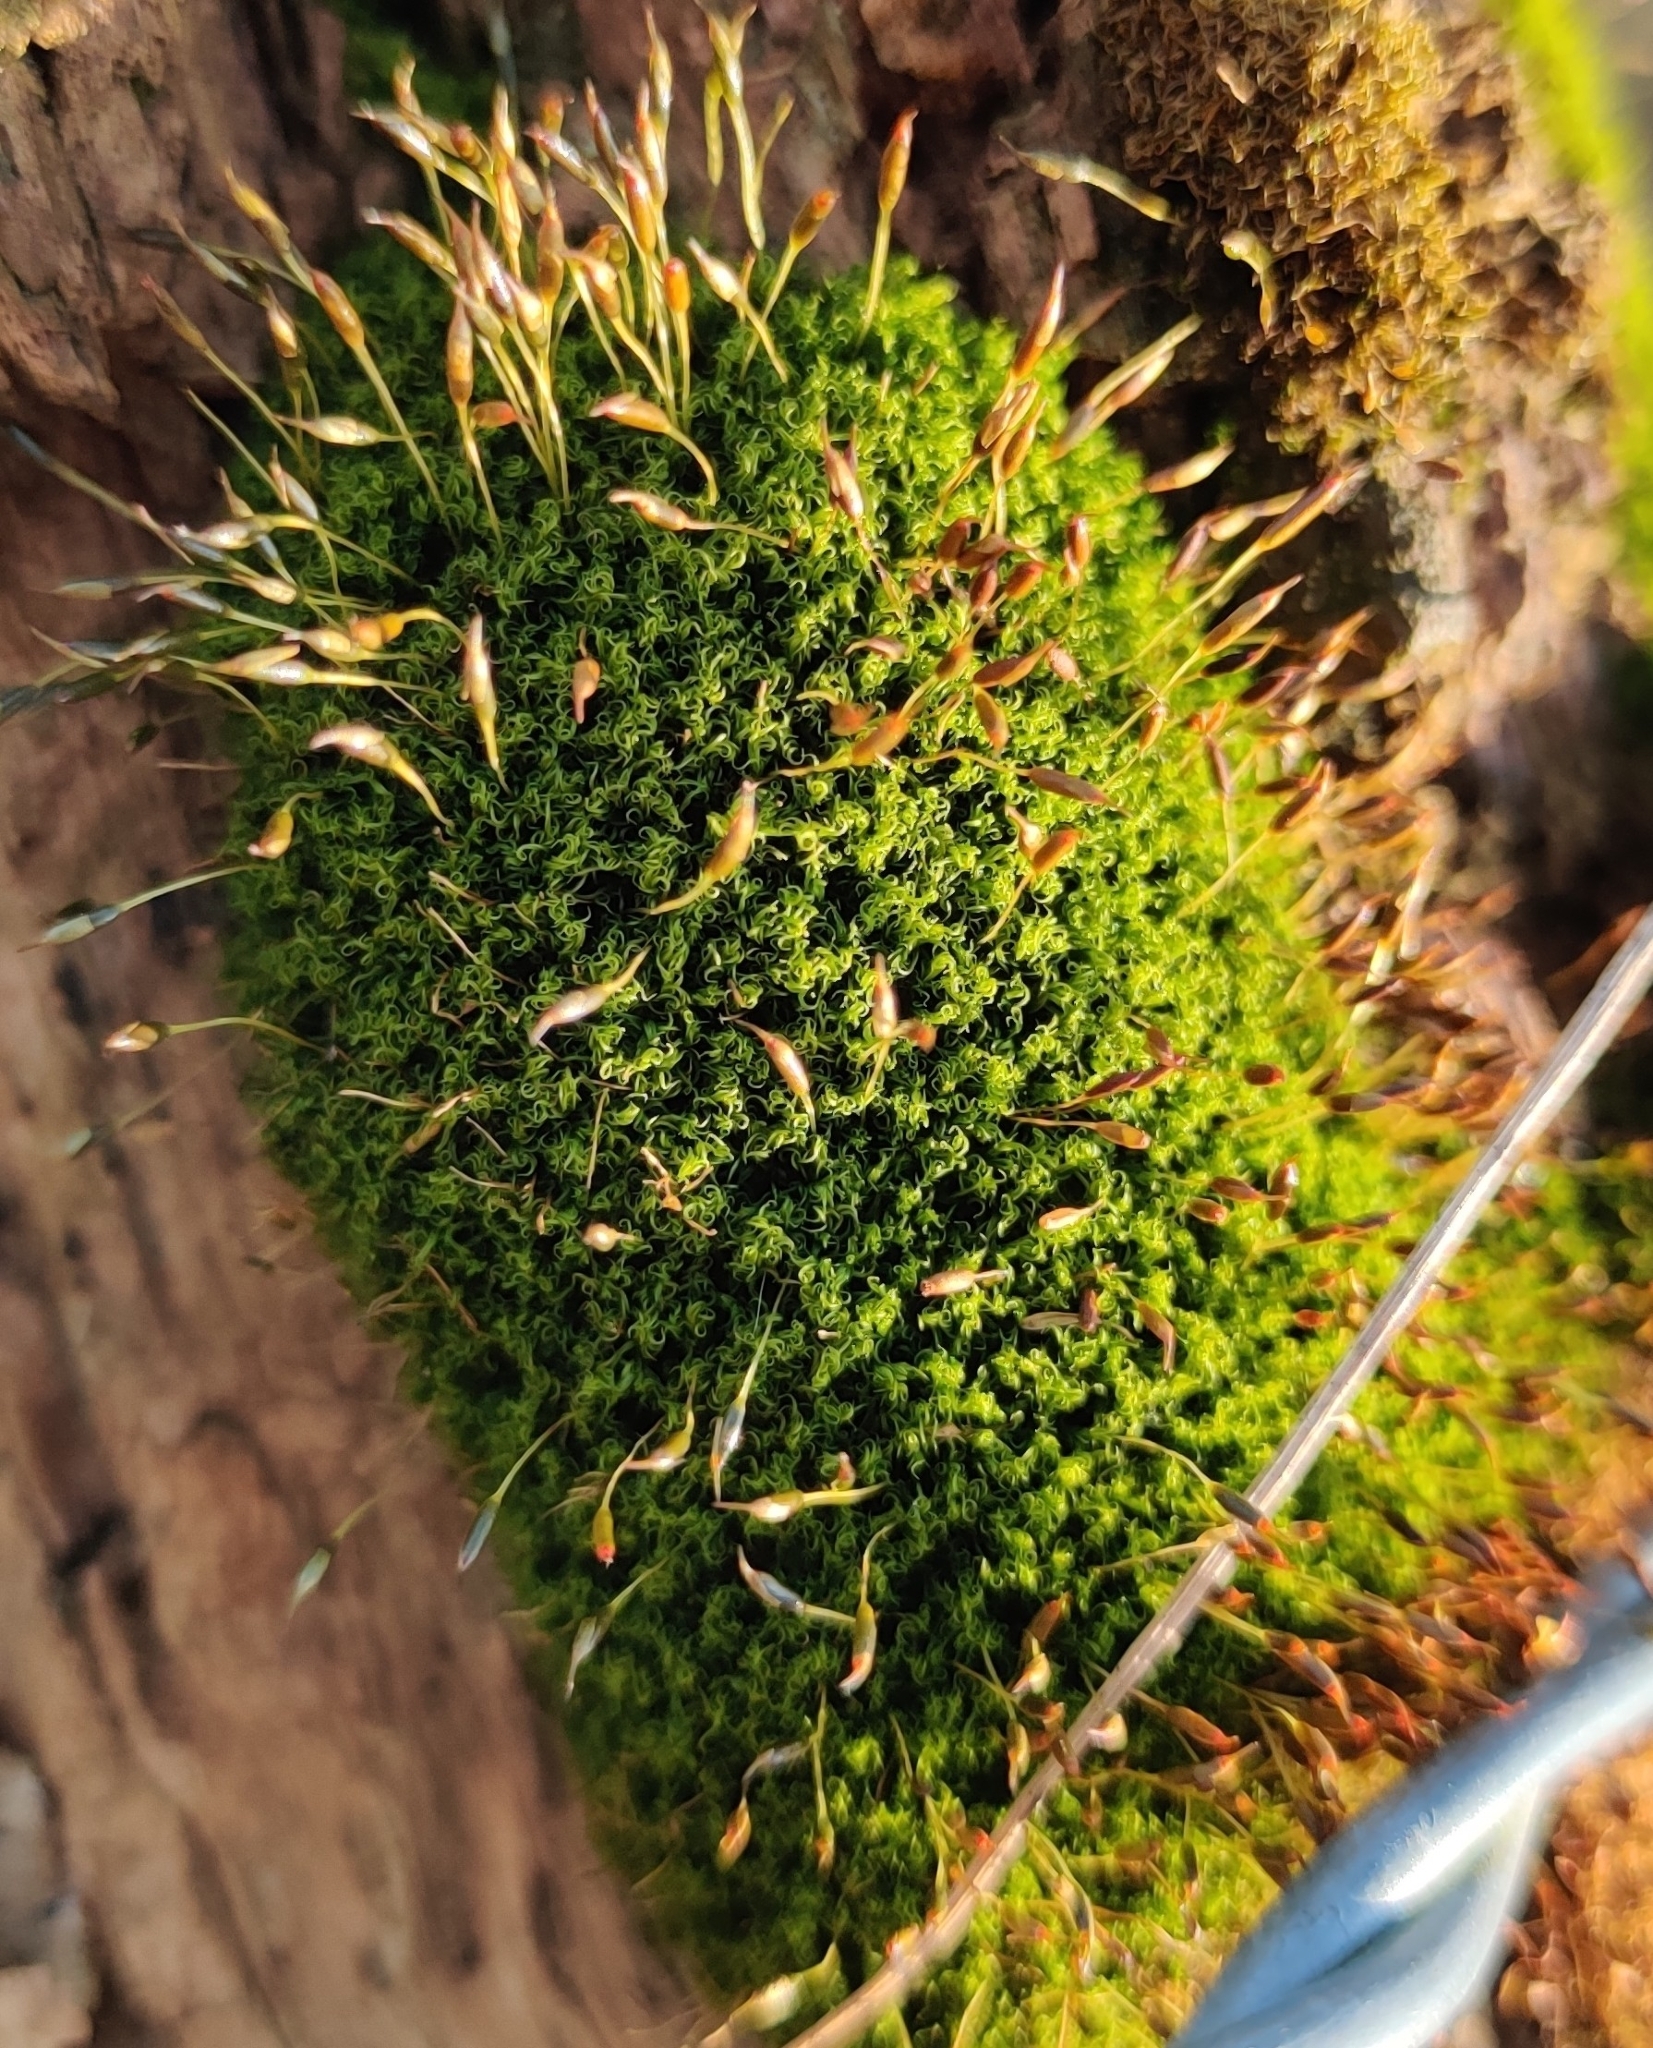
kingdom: Plantae
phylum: Bryophyta
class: Bryopsida
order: Dicranales
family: Rhabdoweisiaceae
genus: Dicranoweisia
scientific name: Dicranoweisia cirrata
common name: Common pincushion
